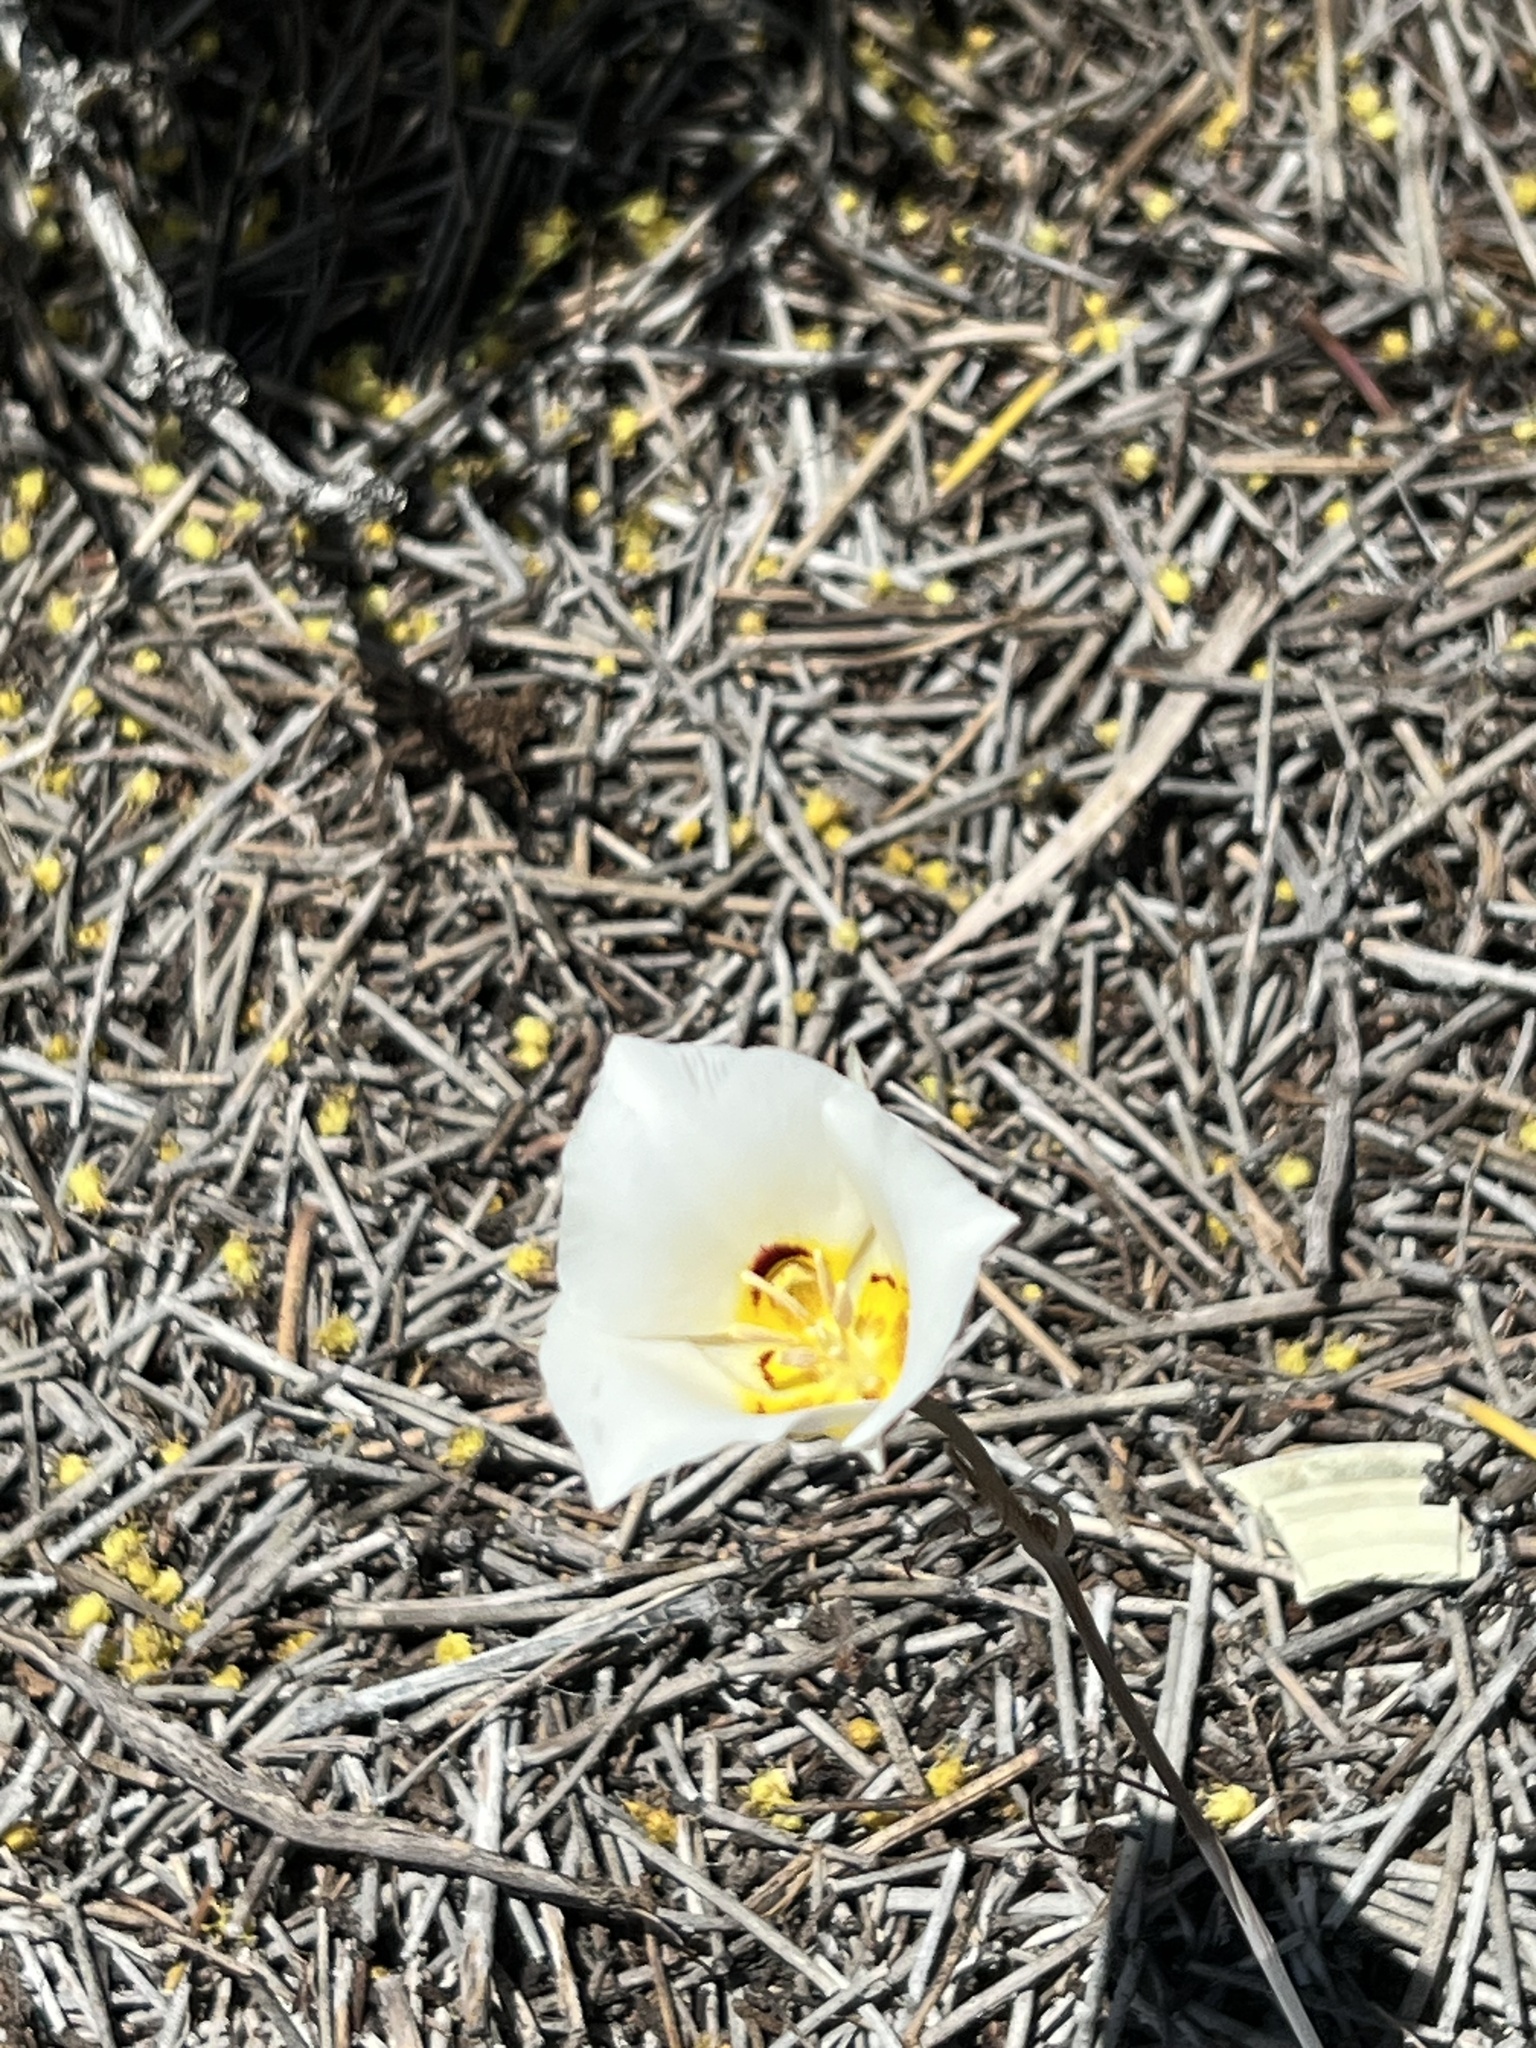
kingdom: Plantae
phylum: Tracheophyta
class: Liliopsida
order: Liliales
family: Liliaceae
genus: Calochortus
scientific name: Calochortus nuttallii
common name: Sego-lily
